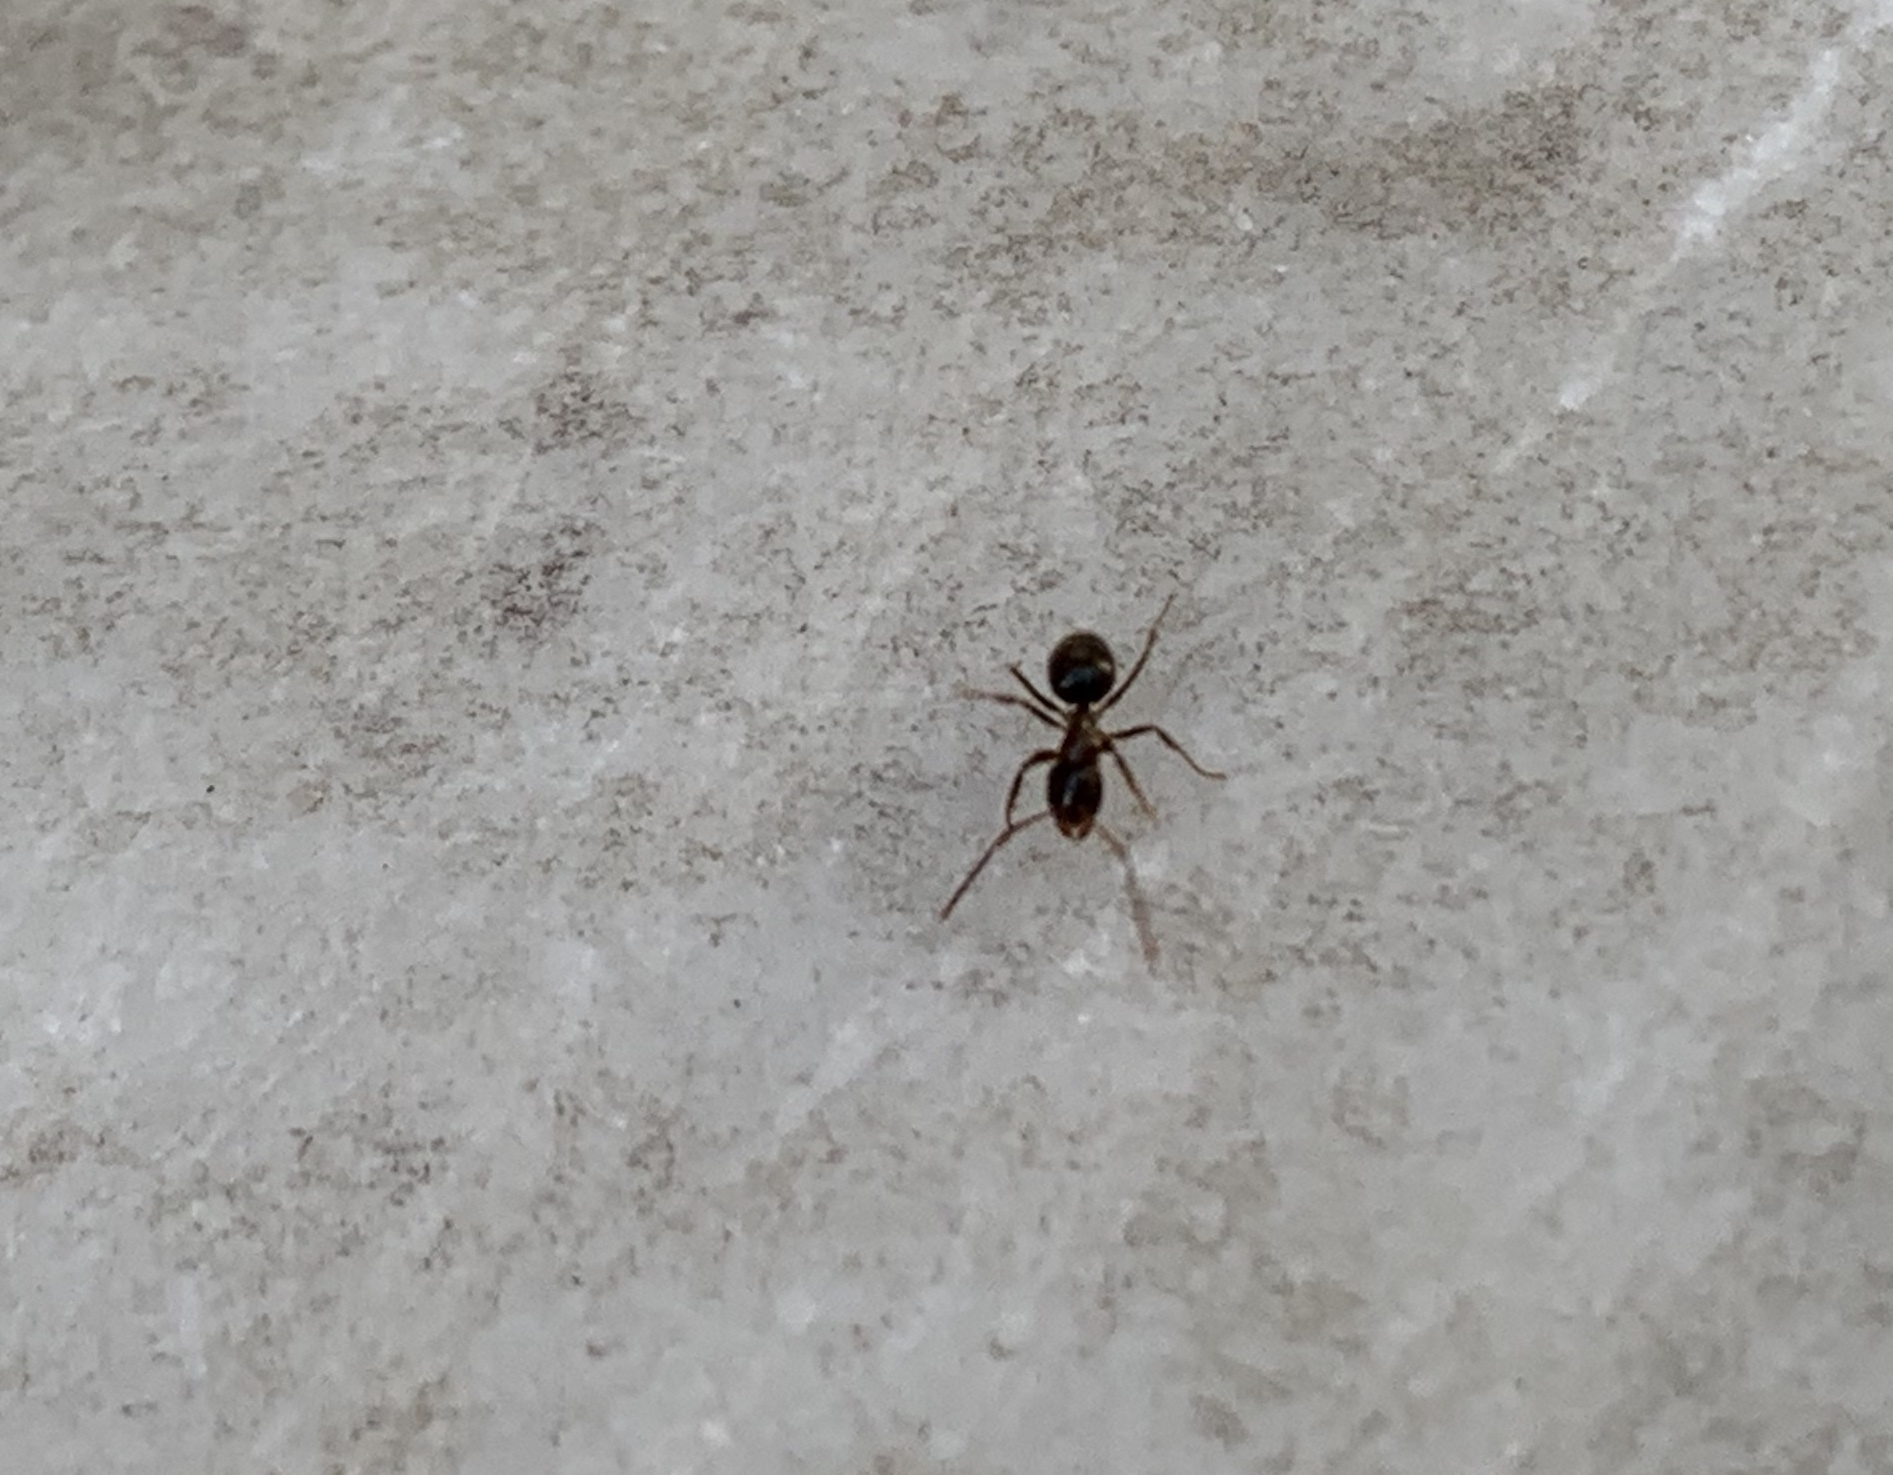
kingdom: Animalia
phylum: Arthropoda
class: Insecta
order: Hymenoptera
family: Formicidae
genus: Paratrechina
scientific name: Paratrechina jaegerskioeldi
